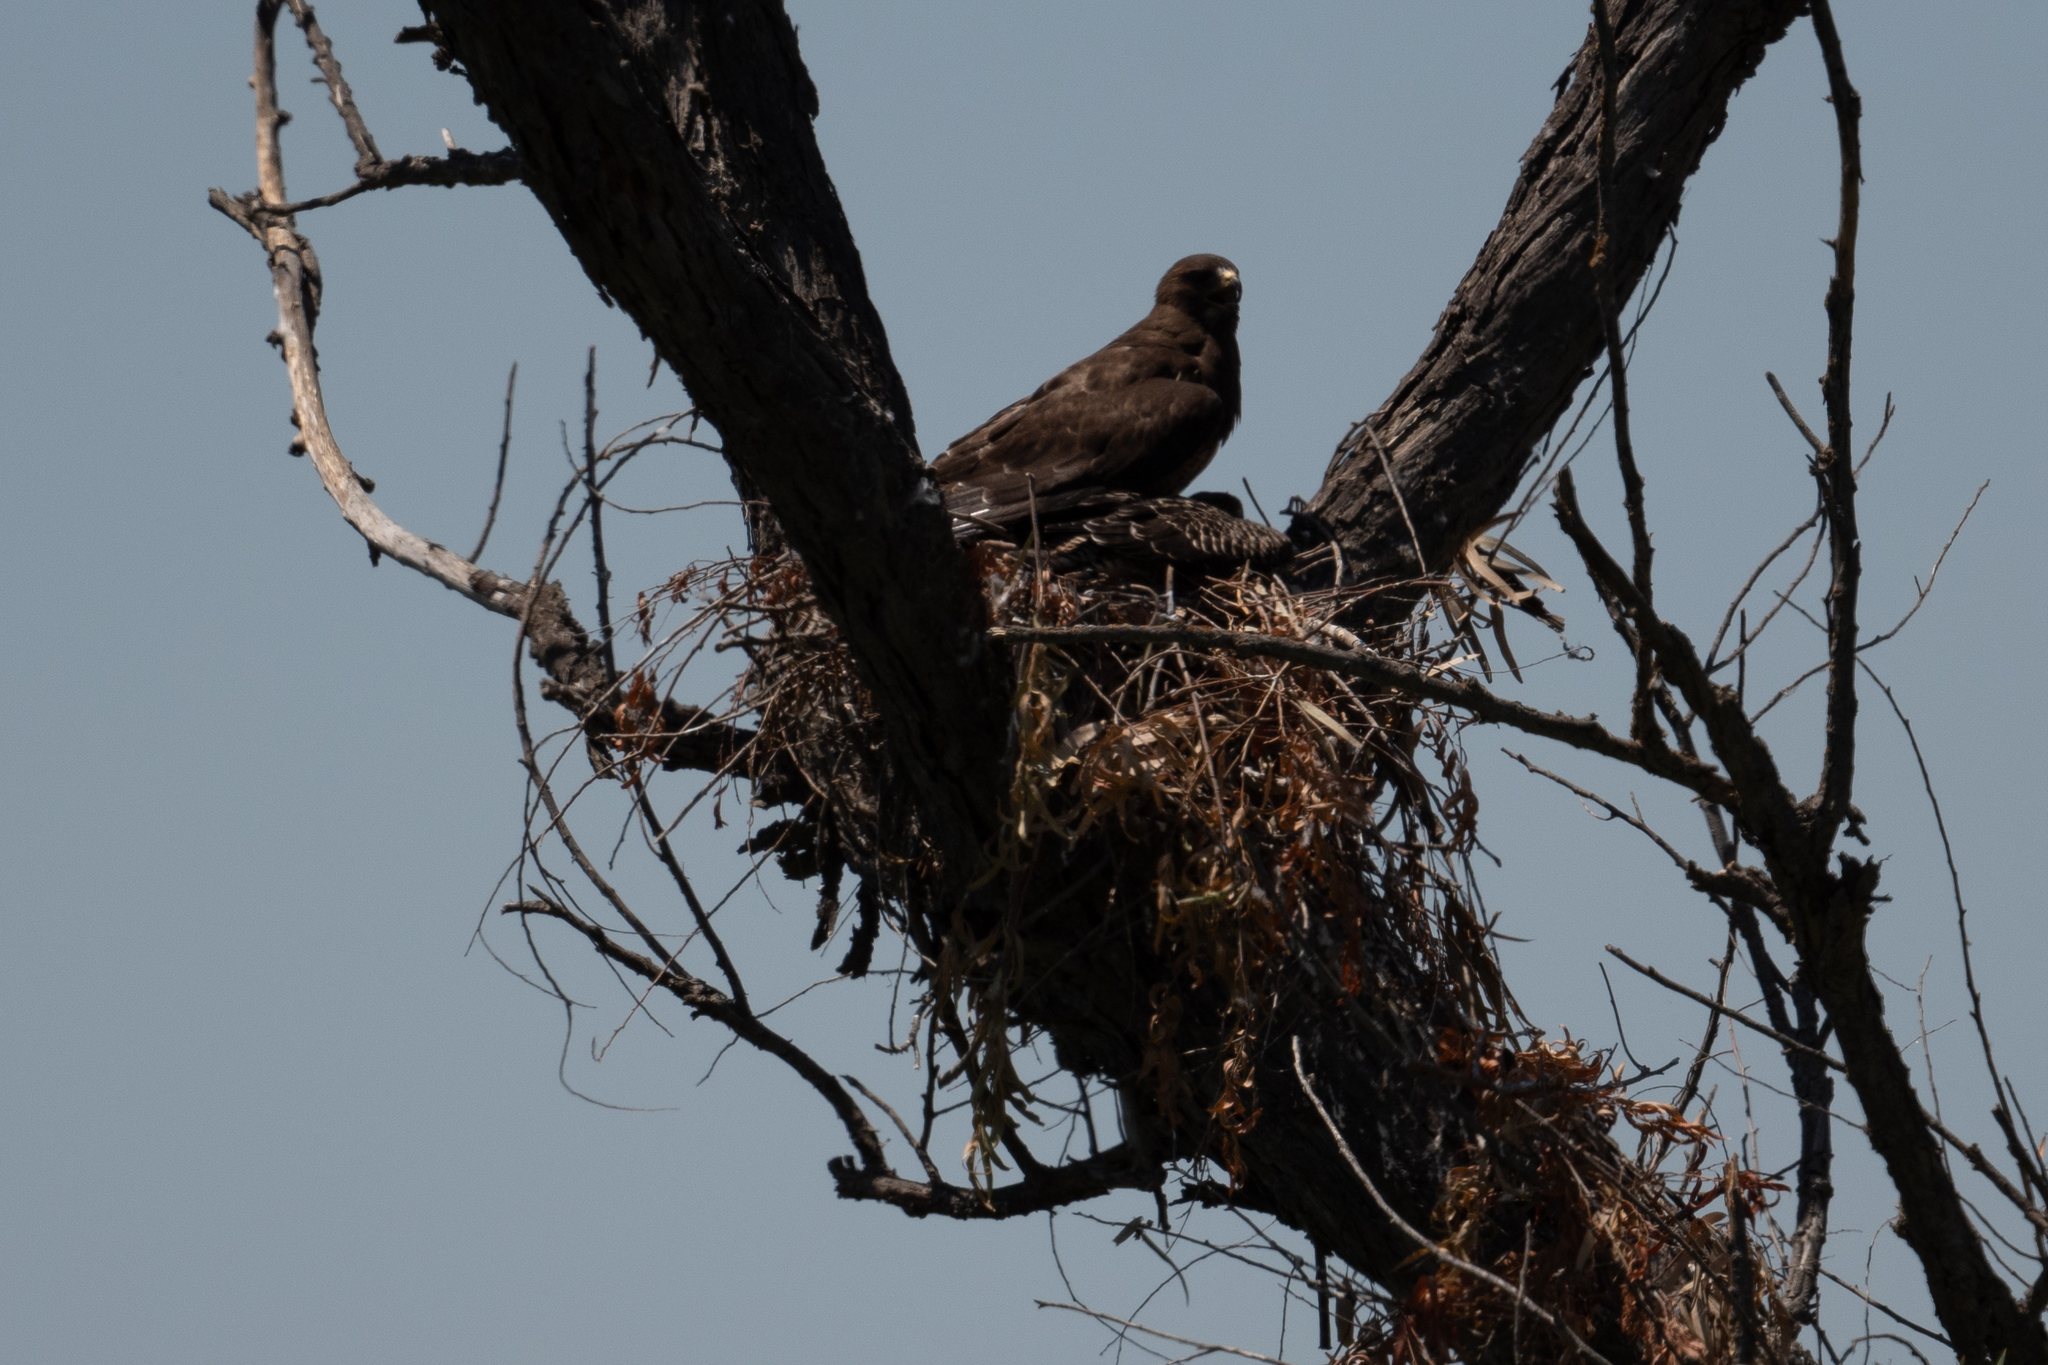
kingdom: Animalia
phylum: Chordata
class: Aves
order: Accipitriformes
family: Accipitridae
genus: Buteo
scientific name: Buteo swainsoni
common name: Swainson's hawk
